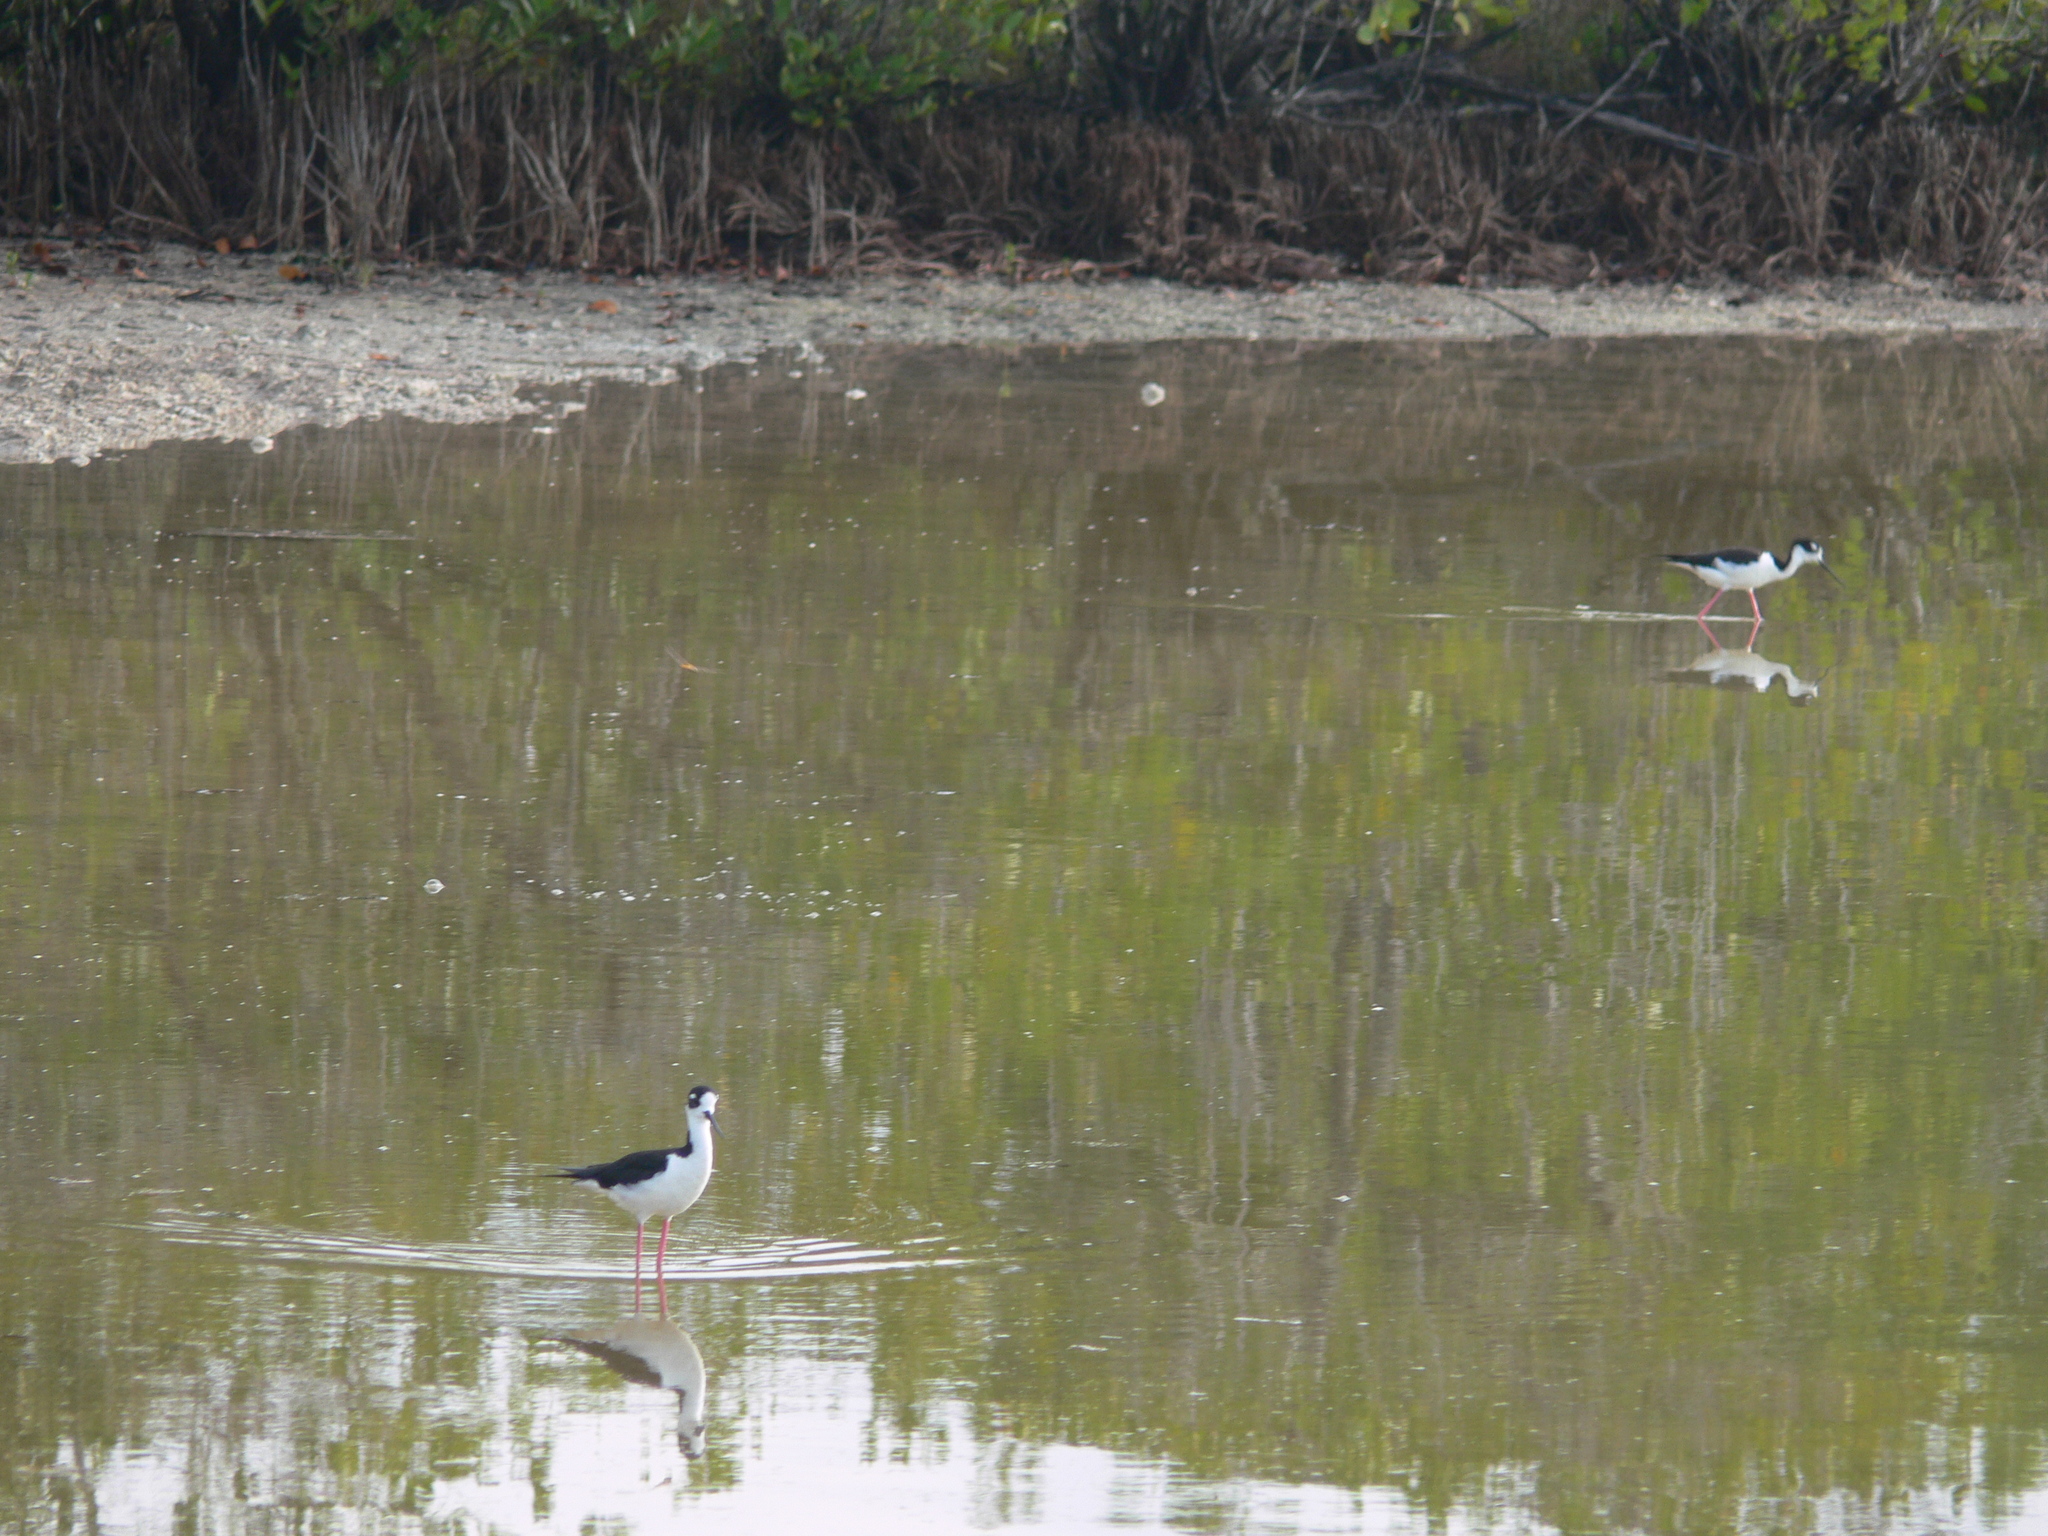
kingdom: Animalia
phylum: Chordata
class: Aves
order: Charadriiformes
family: Recurvirostridae
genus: Himantopus
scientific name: Himantopus mexicanus
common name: Black-necked stilt
